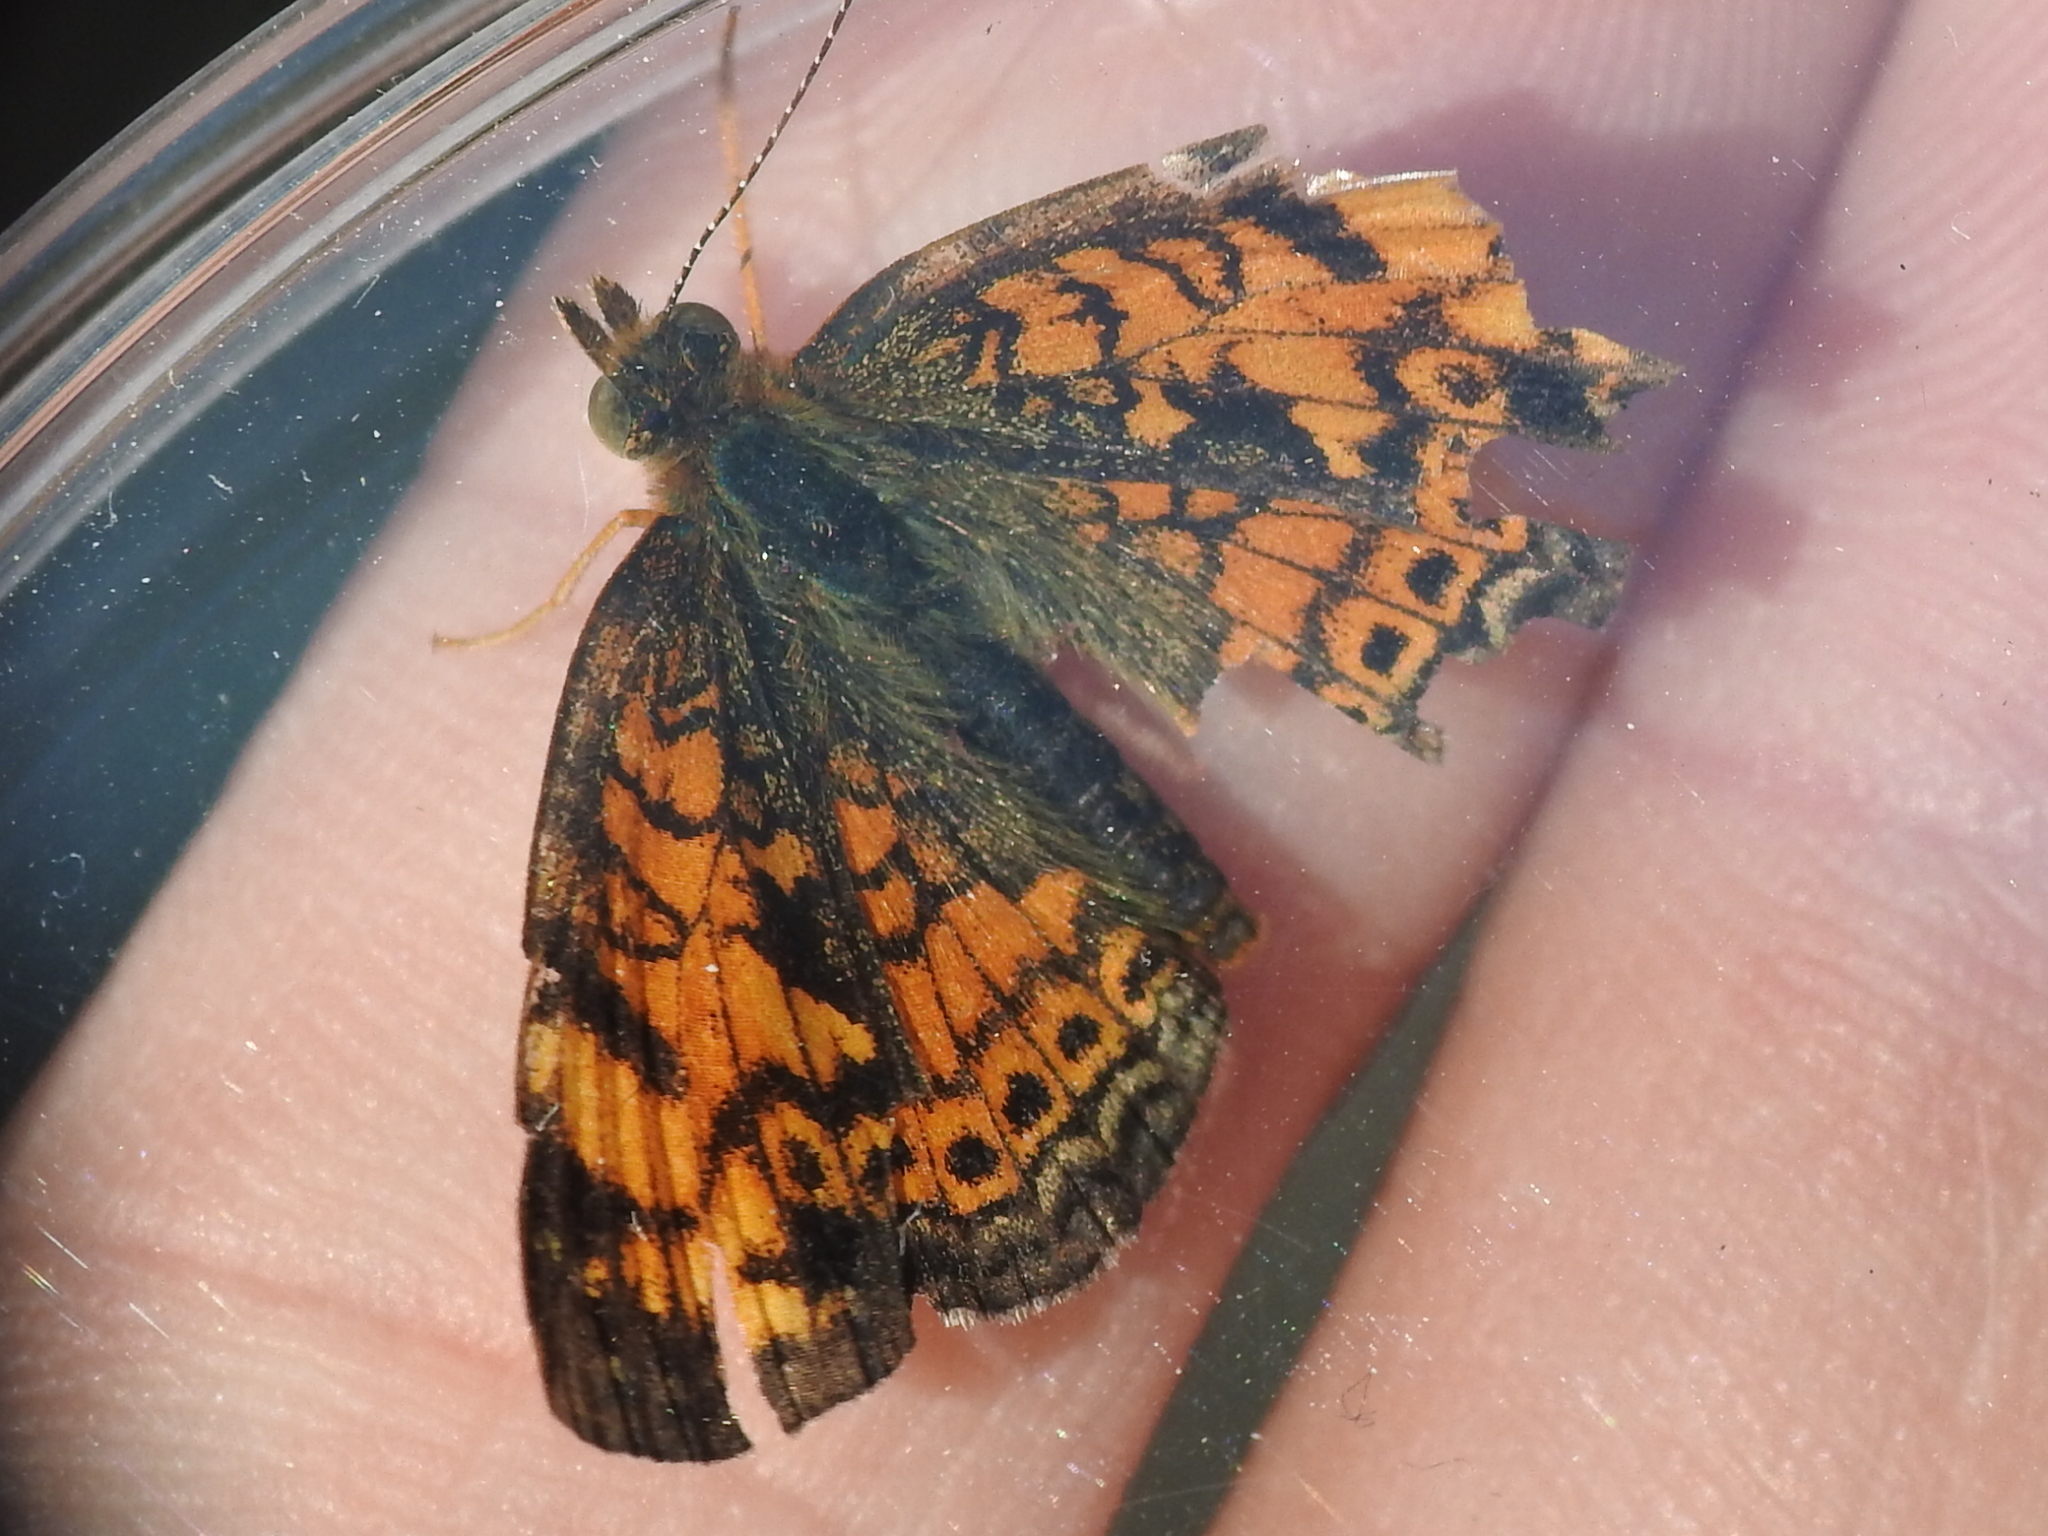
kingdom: Animalia
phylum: Arthropoda
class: Insecta
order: Lepidoptera
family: Nymphalidae
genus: Phyciodes
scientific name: Phyciodes tharos
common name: Pearl crescent
